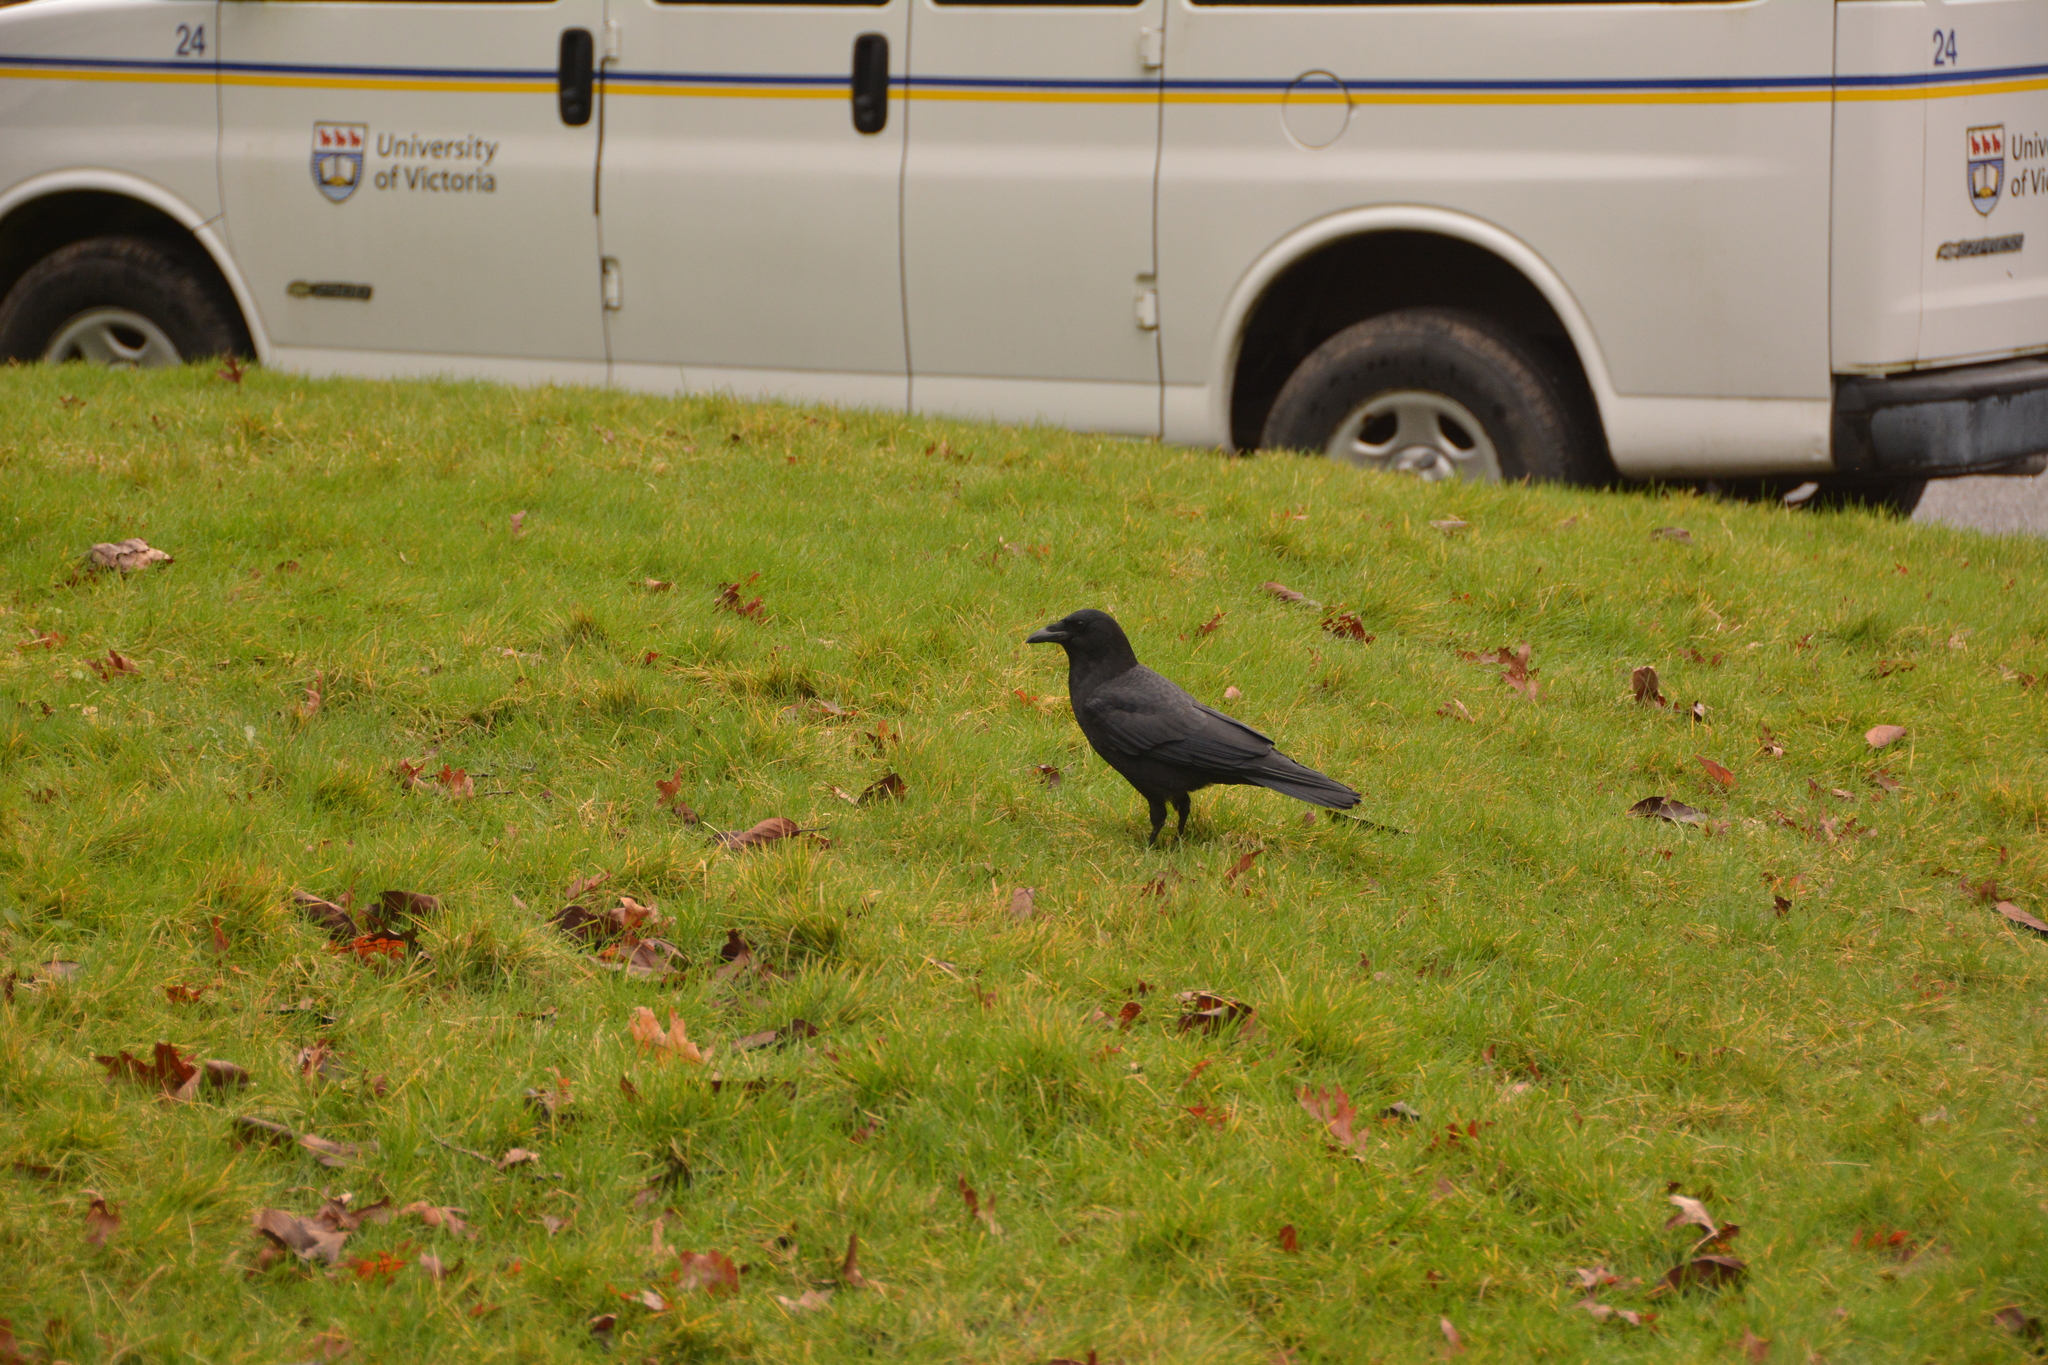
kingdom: Animalia
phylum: Chordata
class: Aves
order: Passeriformes
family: Corvidae
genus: Corvus
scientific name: Corvus brachyrhynchos
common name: American crow
